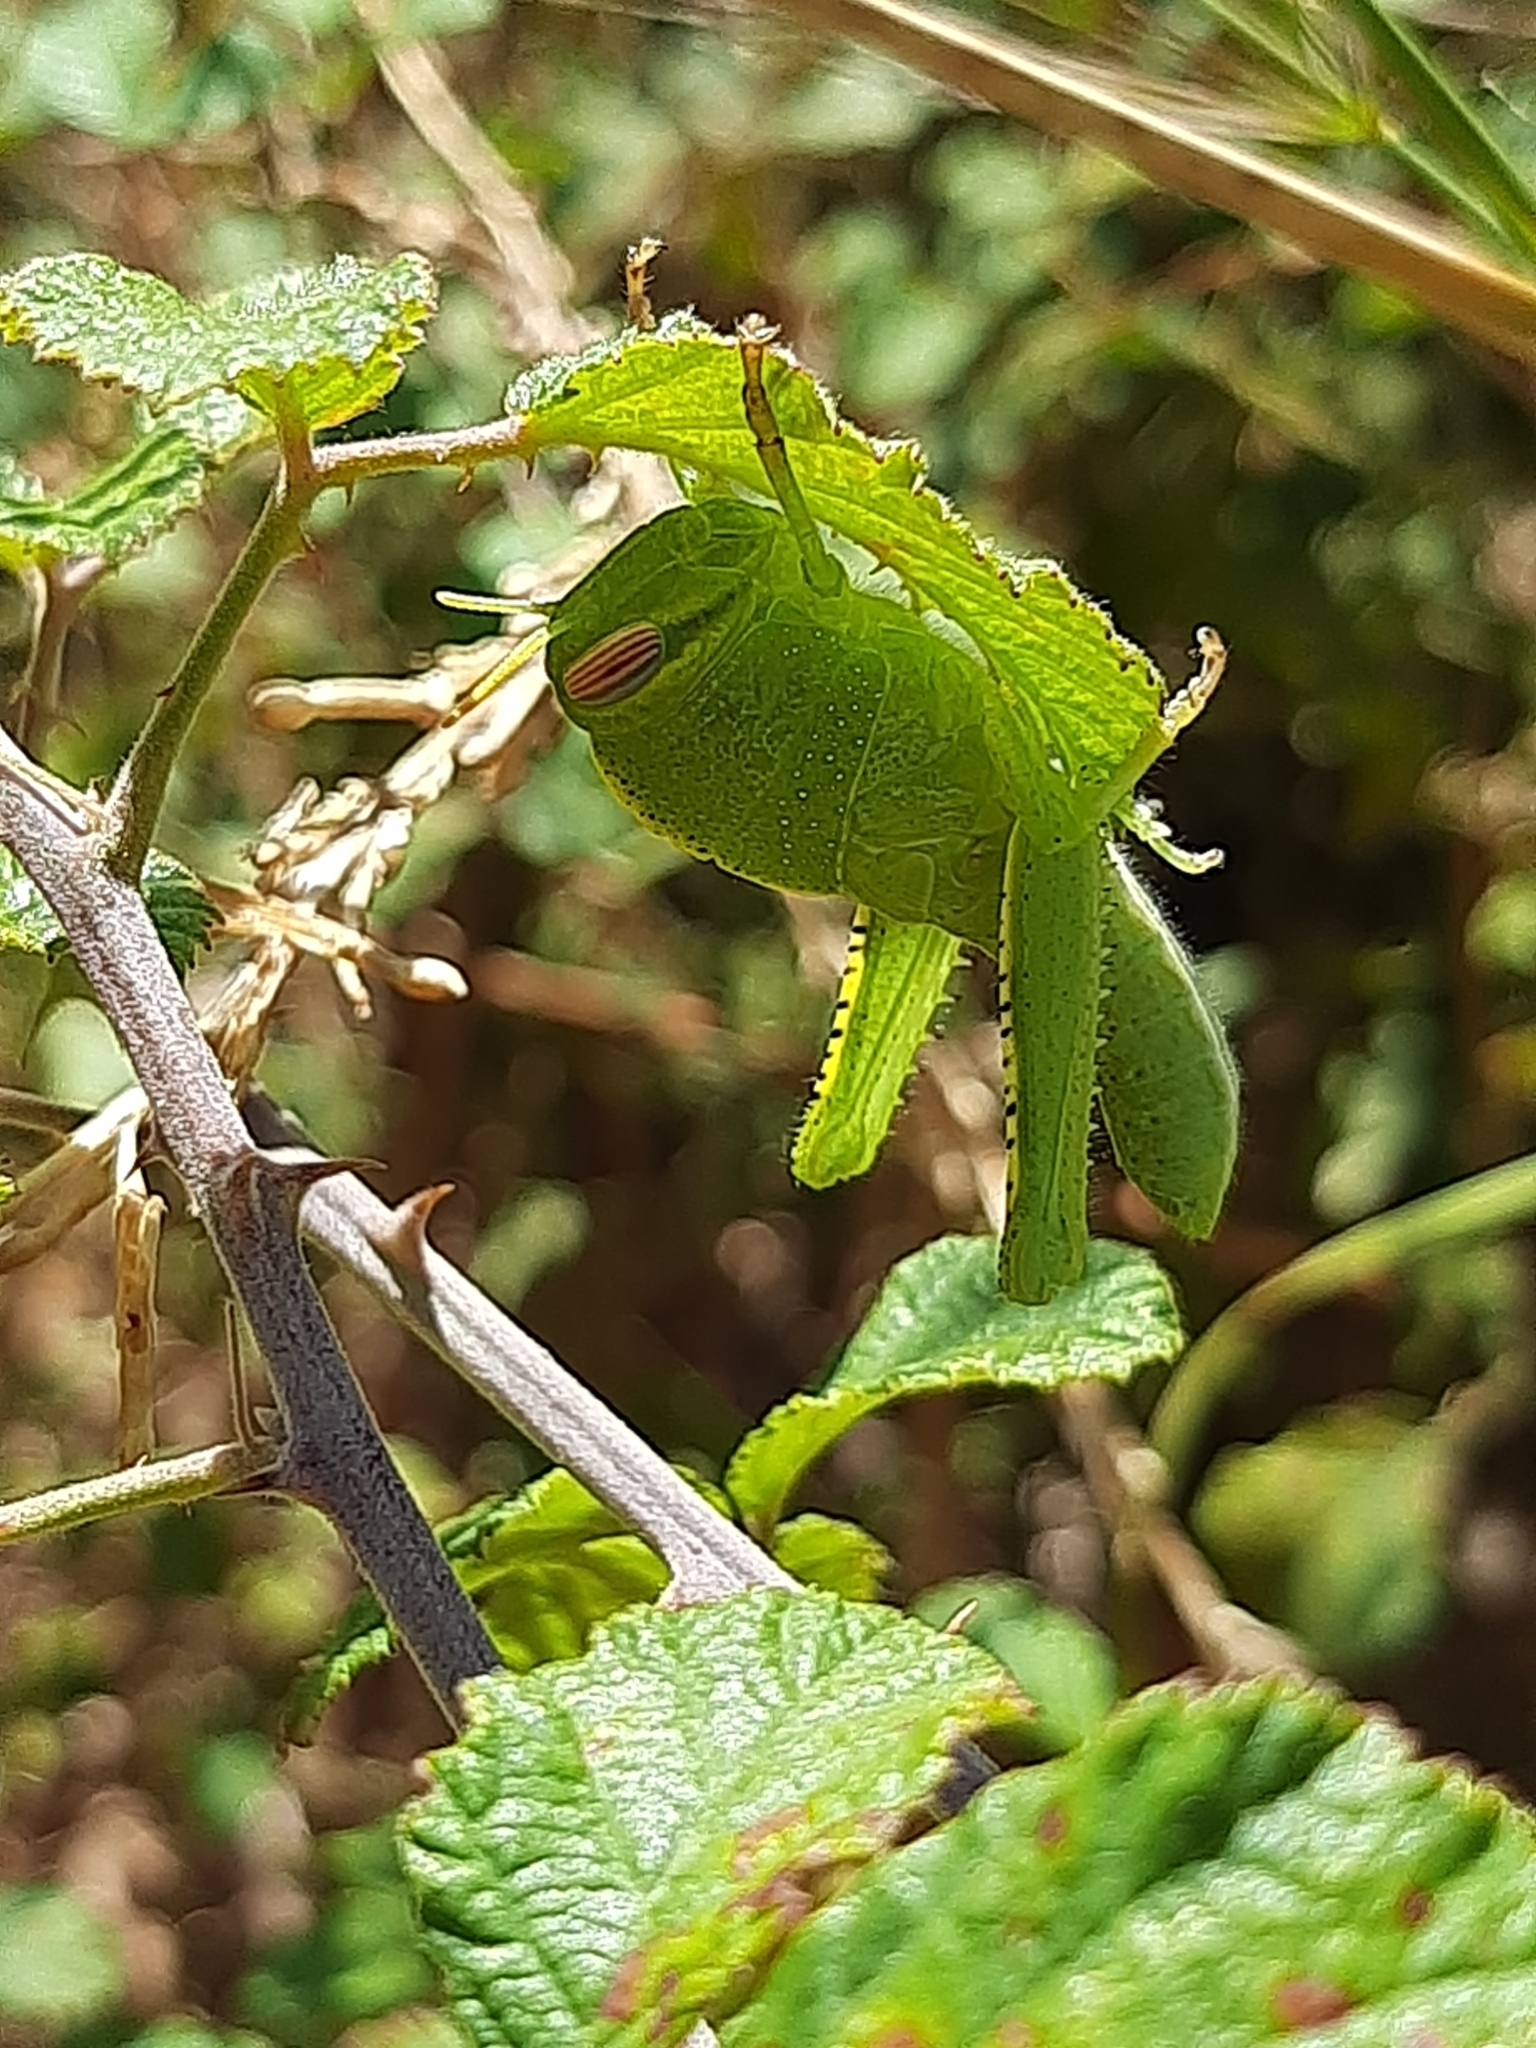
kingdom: Animalia
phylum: Arthropoda
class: Insecta
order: Orthoptera
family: Acrididae
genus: Anacridium
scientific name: Anacridium aegyptium
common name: Egyptian grasshopper
